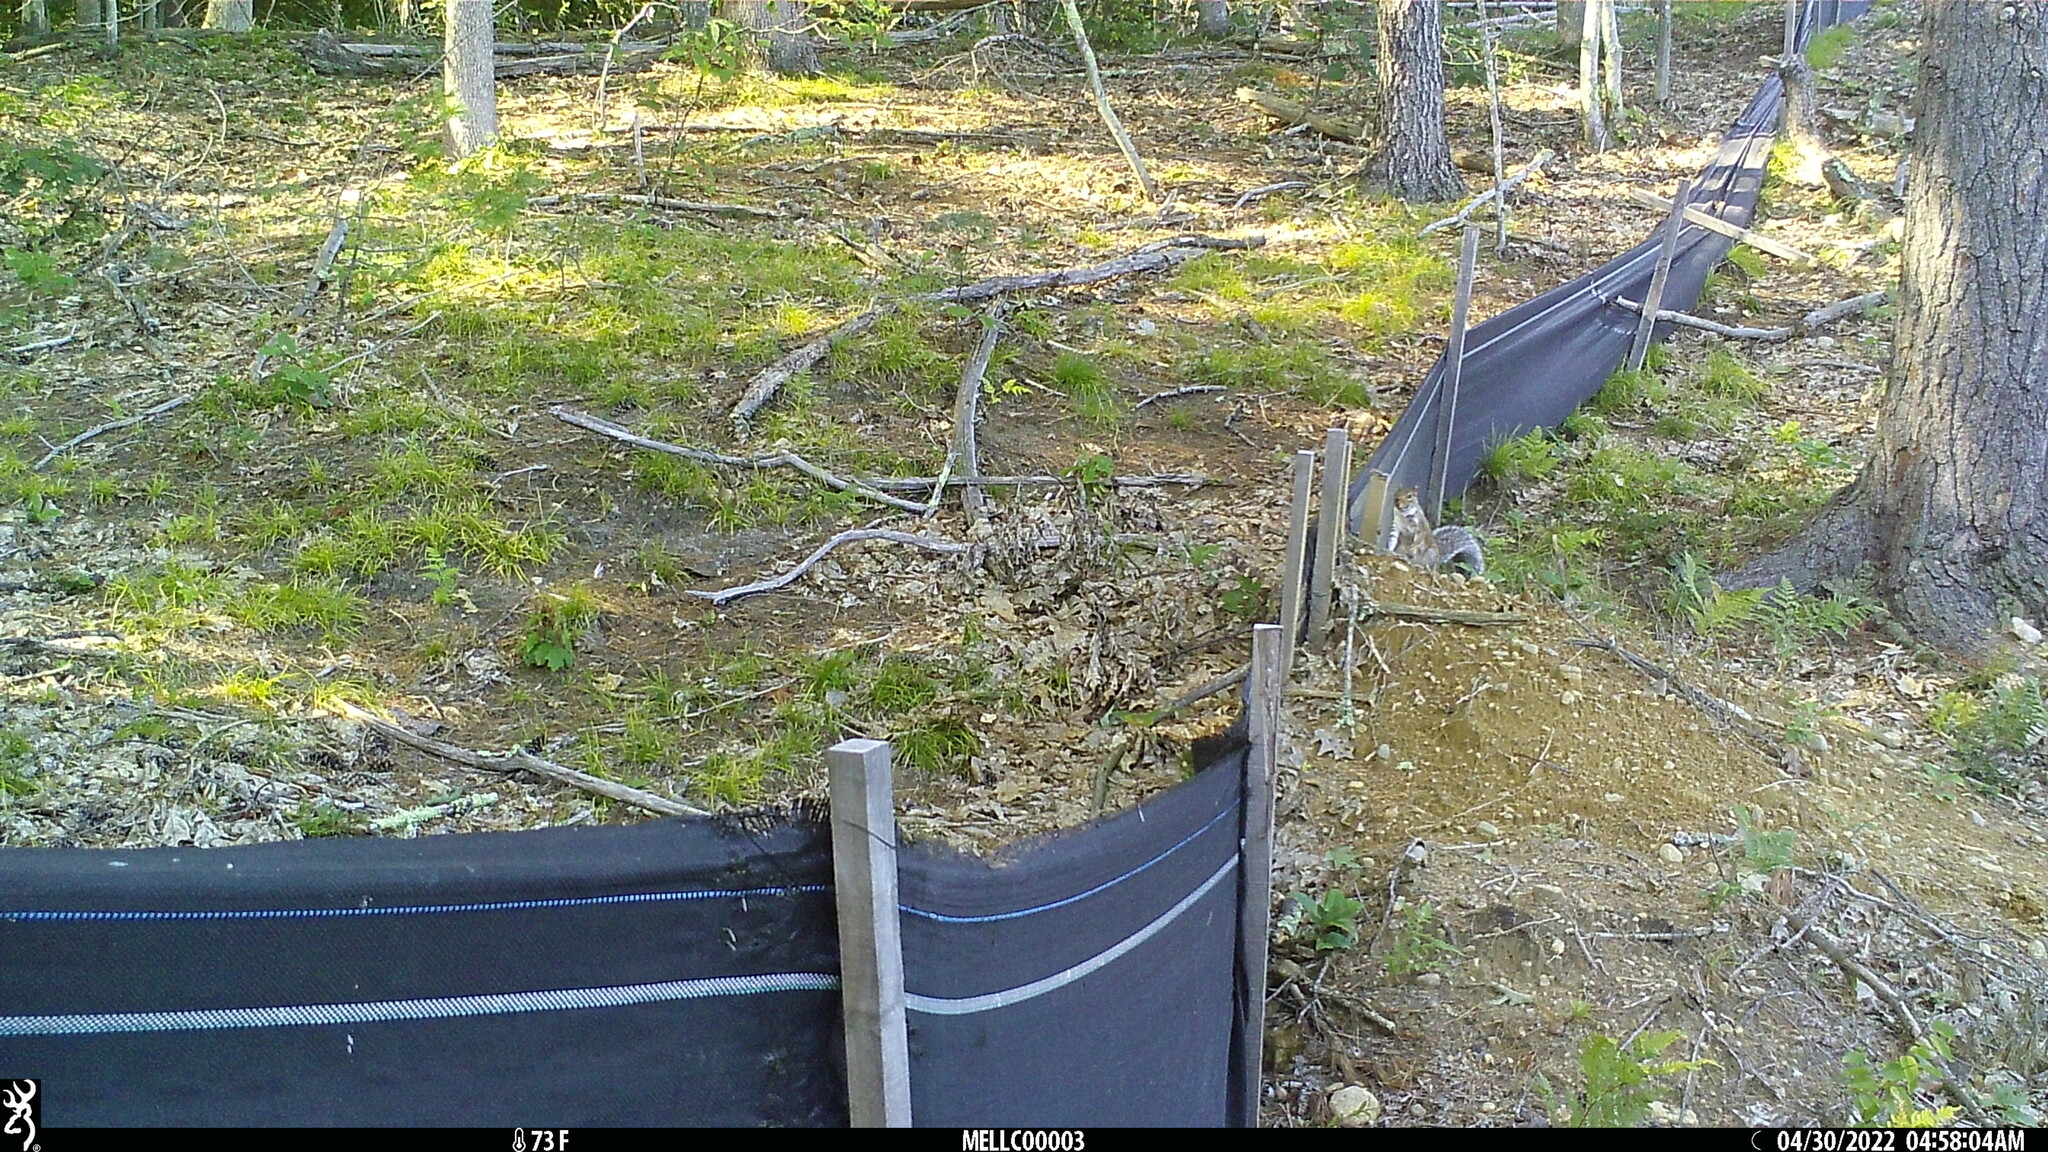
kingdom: Animalia
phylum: Chordata
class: Mammalia
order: Rodentia
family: Sciuridae
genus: Sciurus
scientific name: Sciurus carolinensis
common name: Eastern gray squirrel
